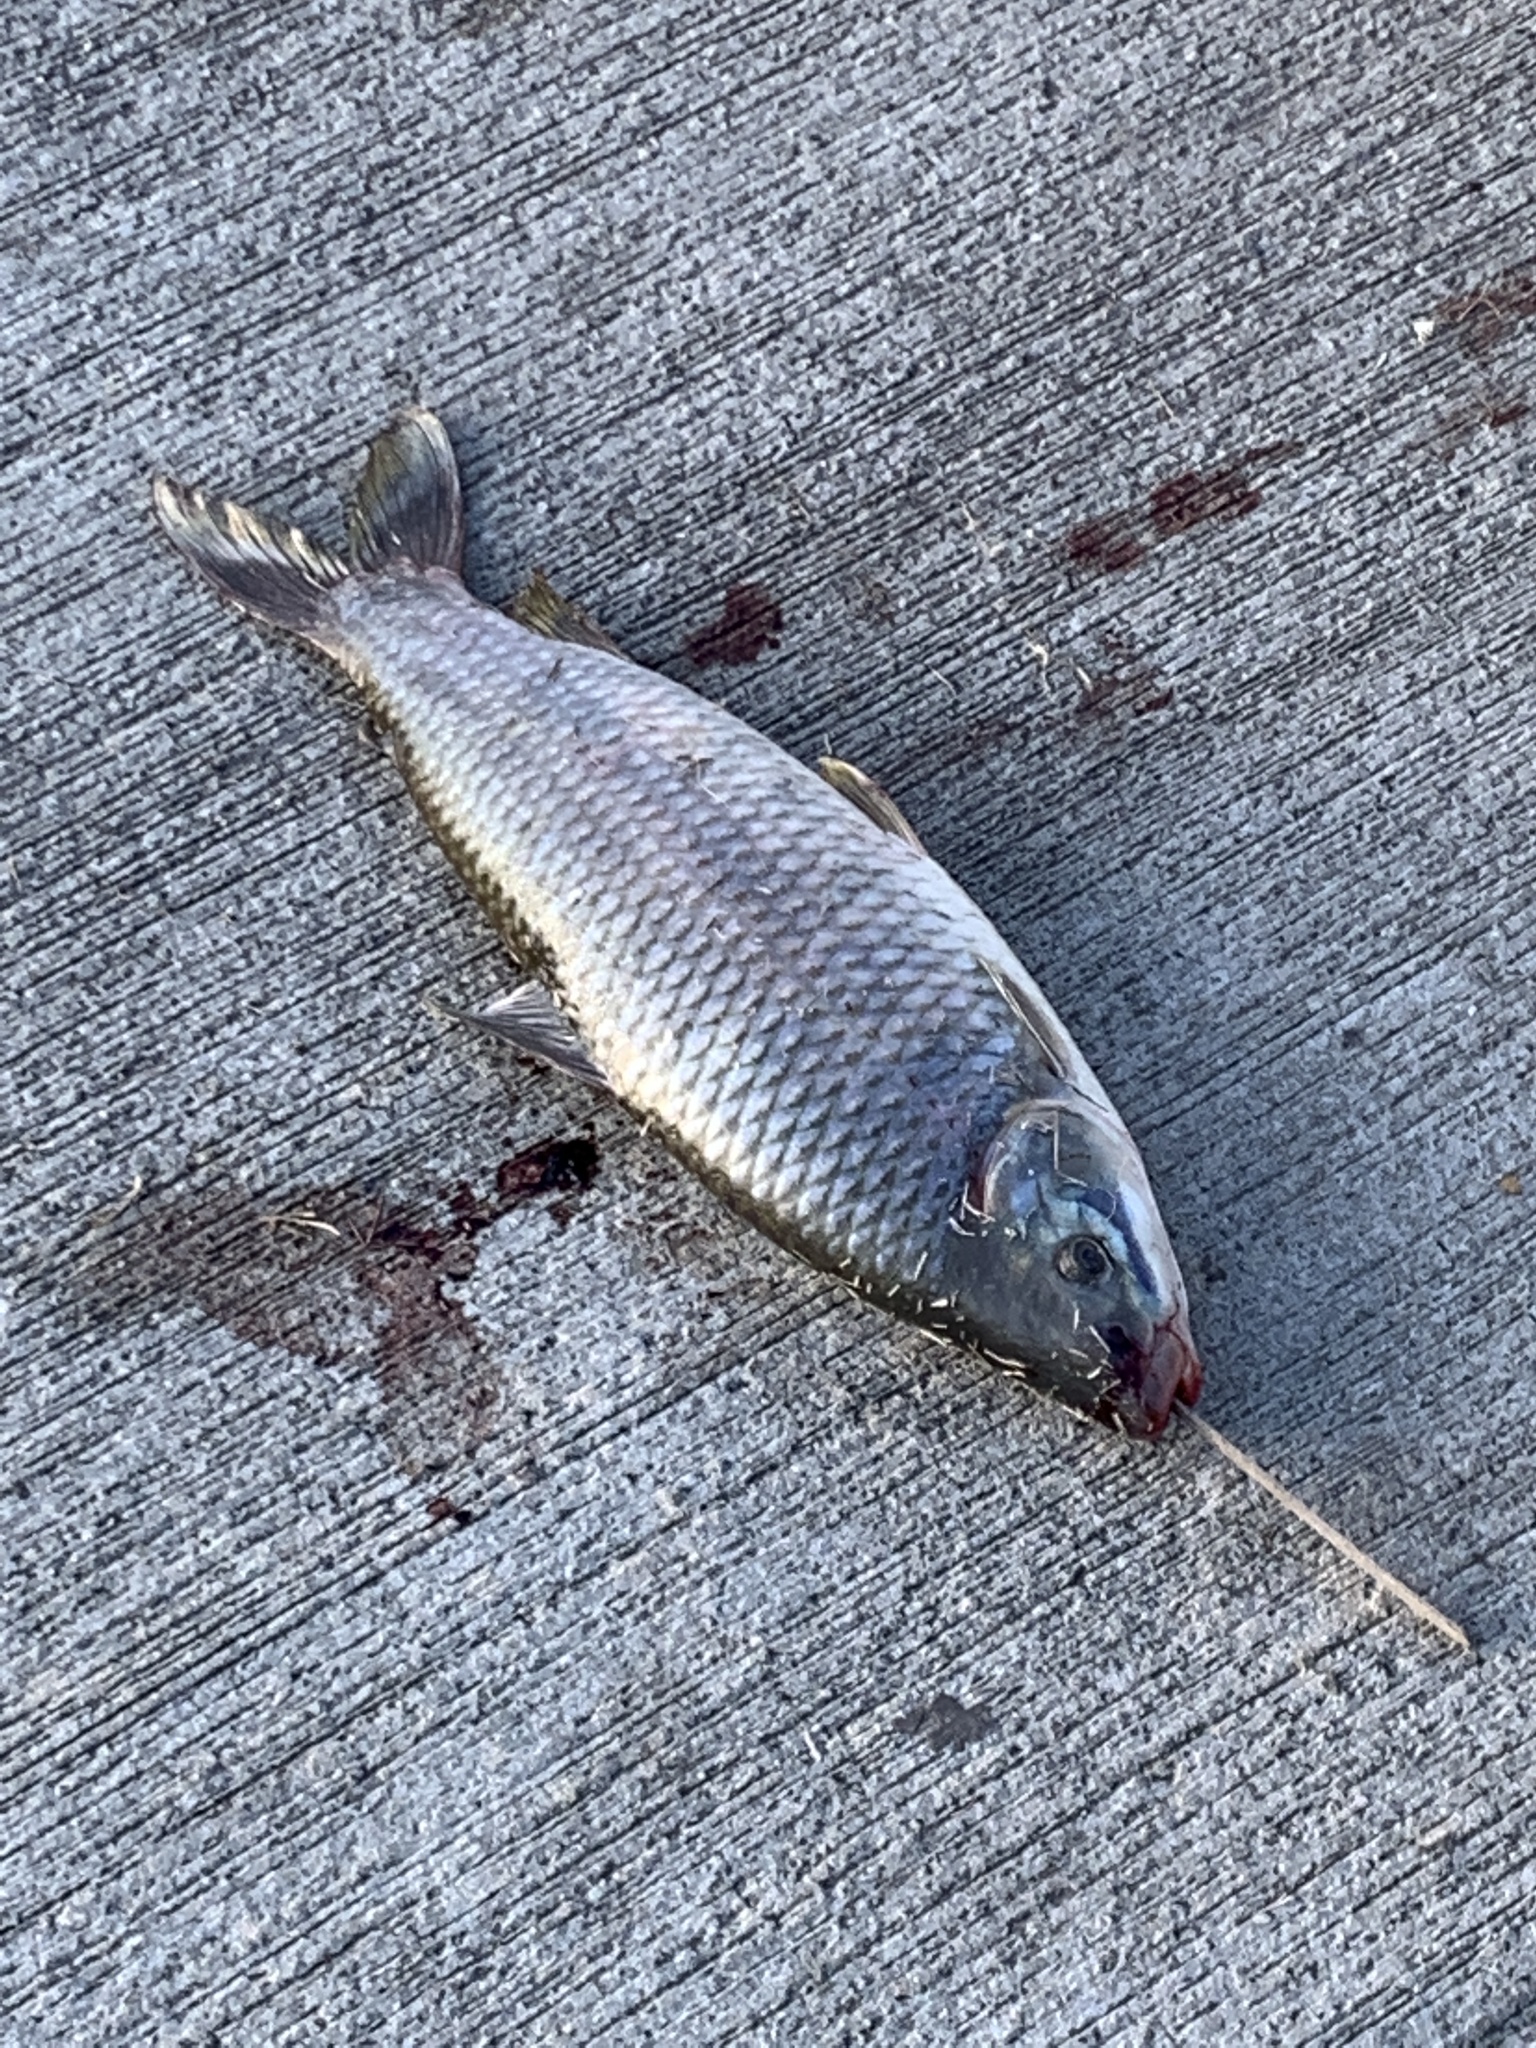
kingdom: Animalia
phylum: Chordata
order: Characiformes
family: Anostomidae
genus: Leporinus
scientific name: Leporinus obtusidens
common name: Characin
